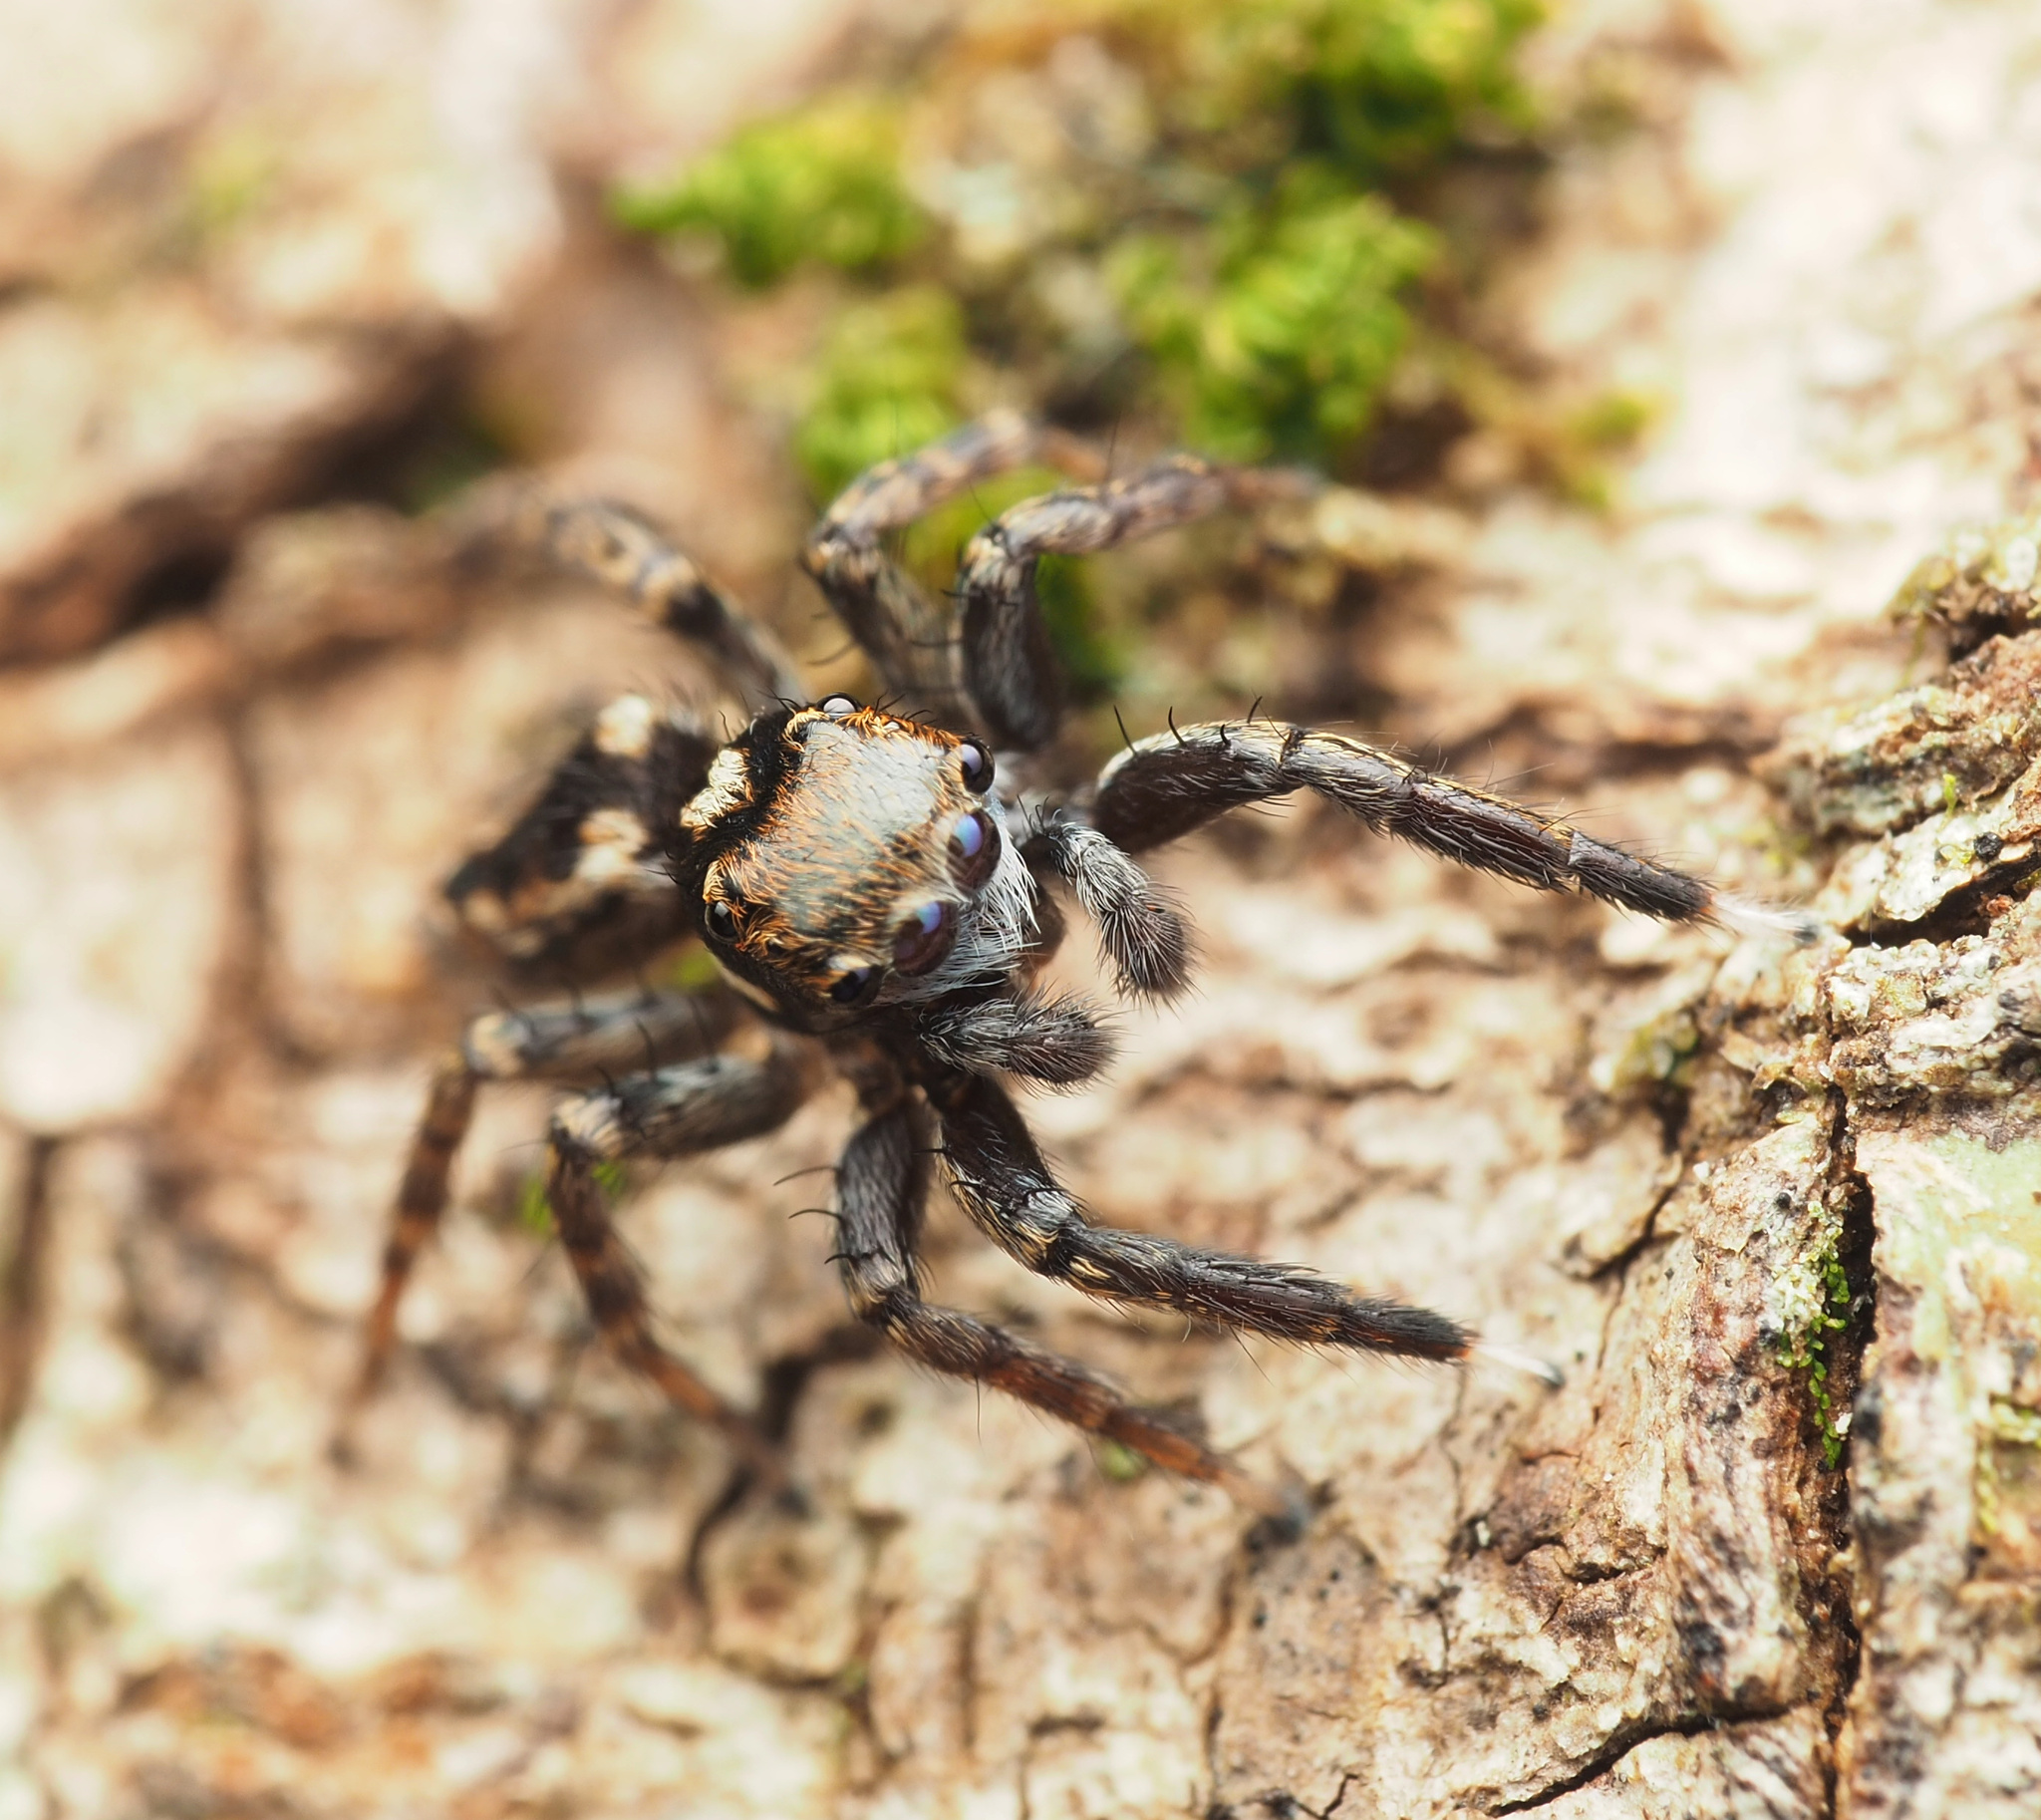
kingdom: Animalia
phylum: Arthropoda
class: Arachnida
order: Araneae
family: Salticidae
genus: Jotus
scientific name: Jotus moonensis
